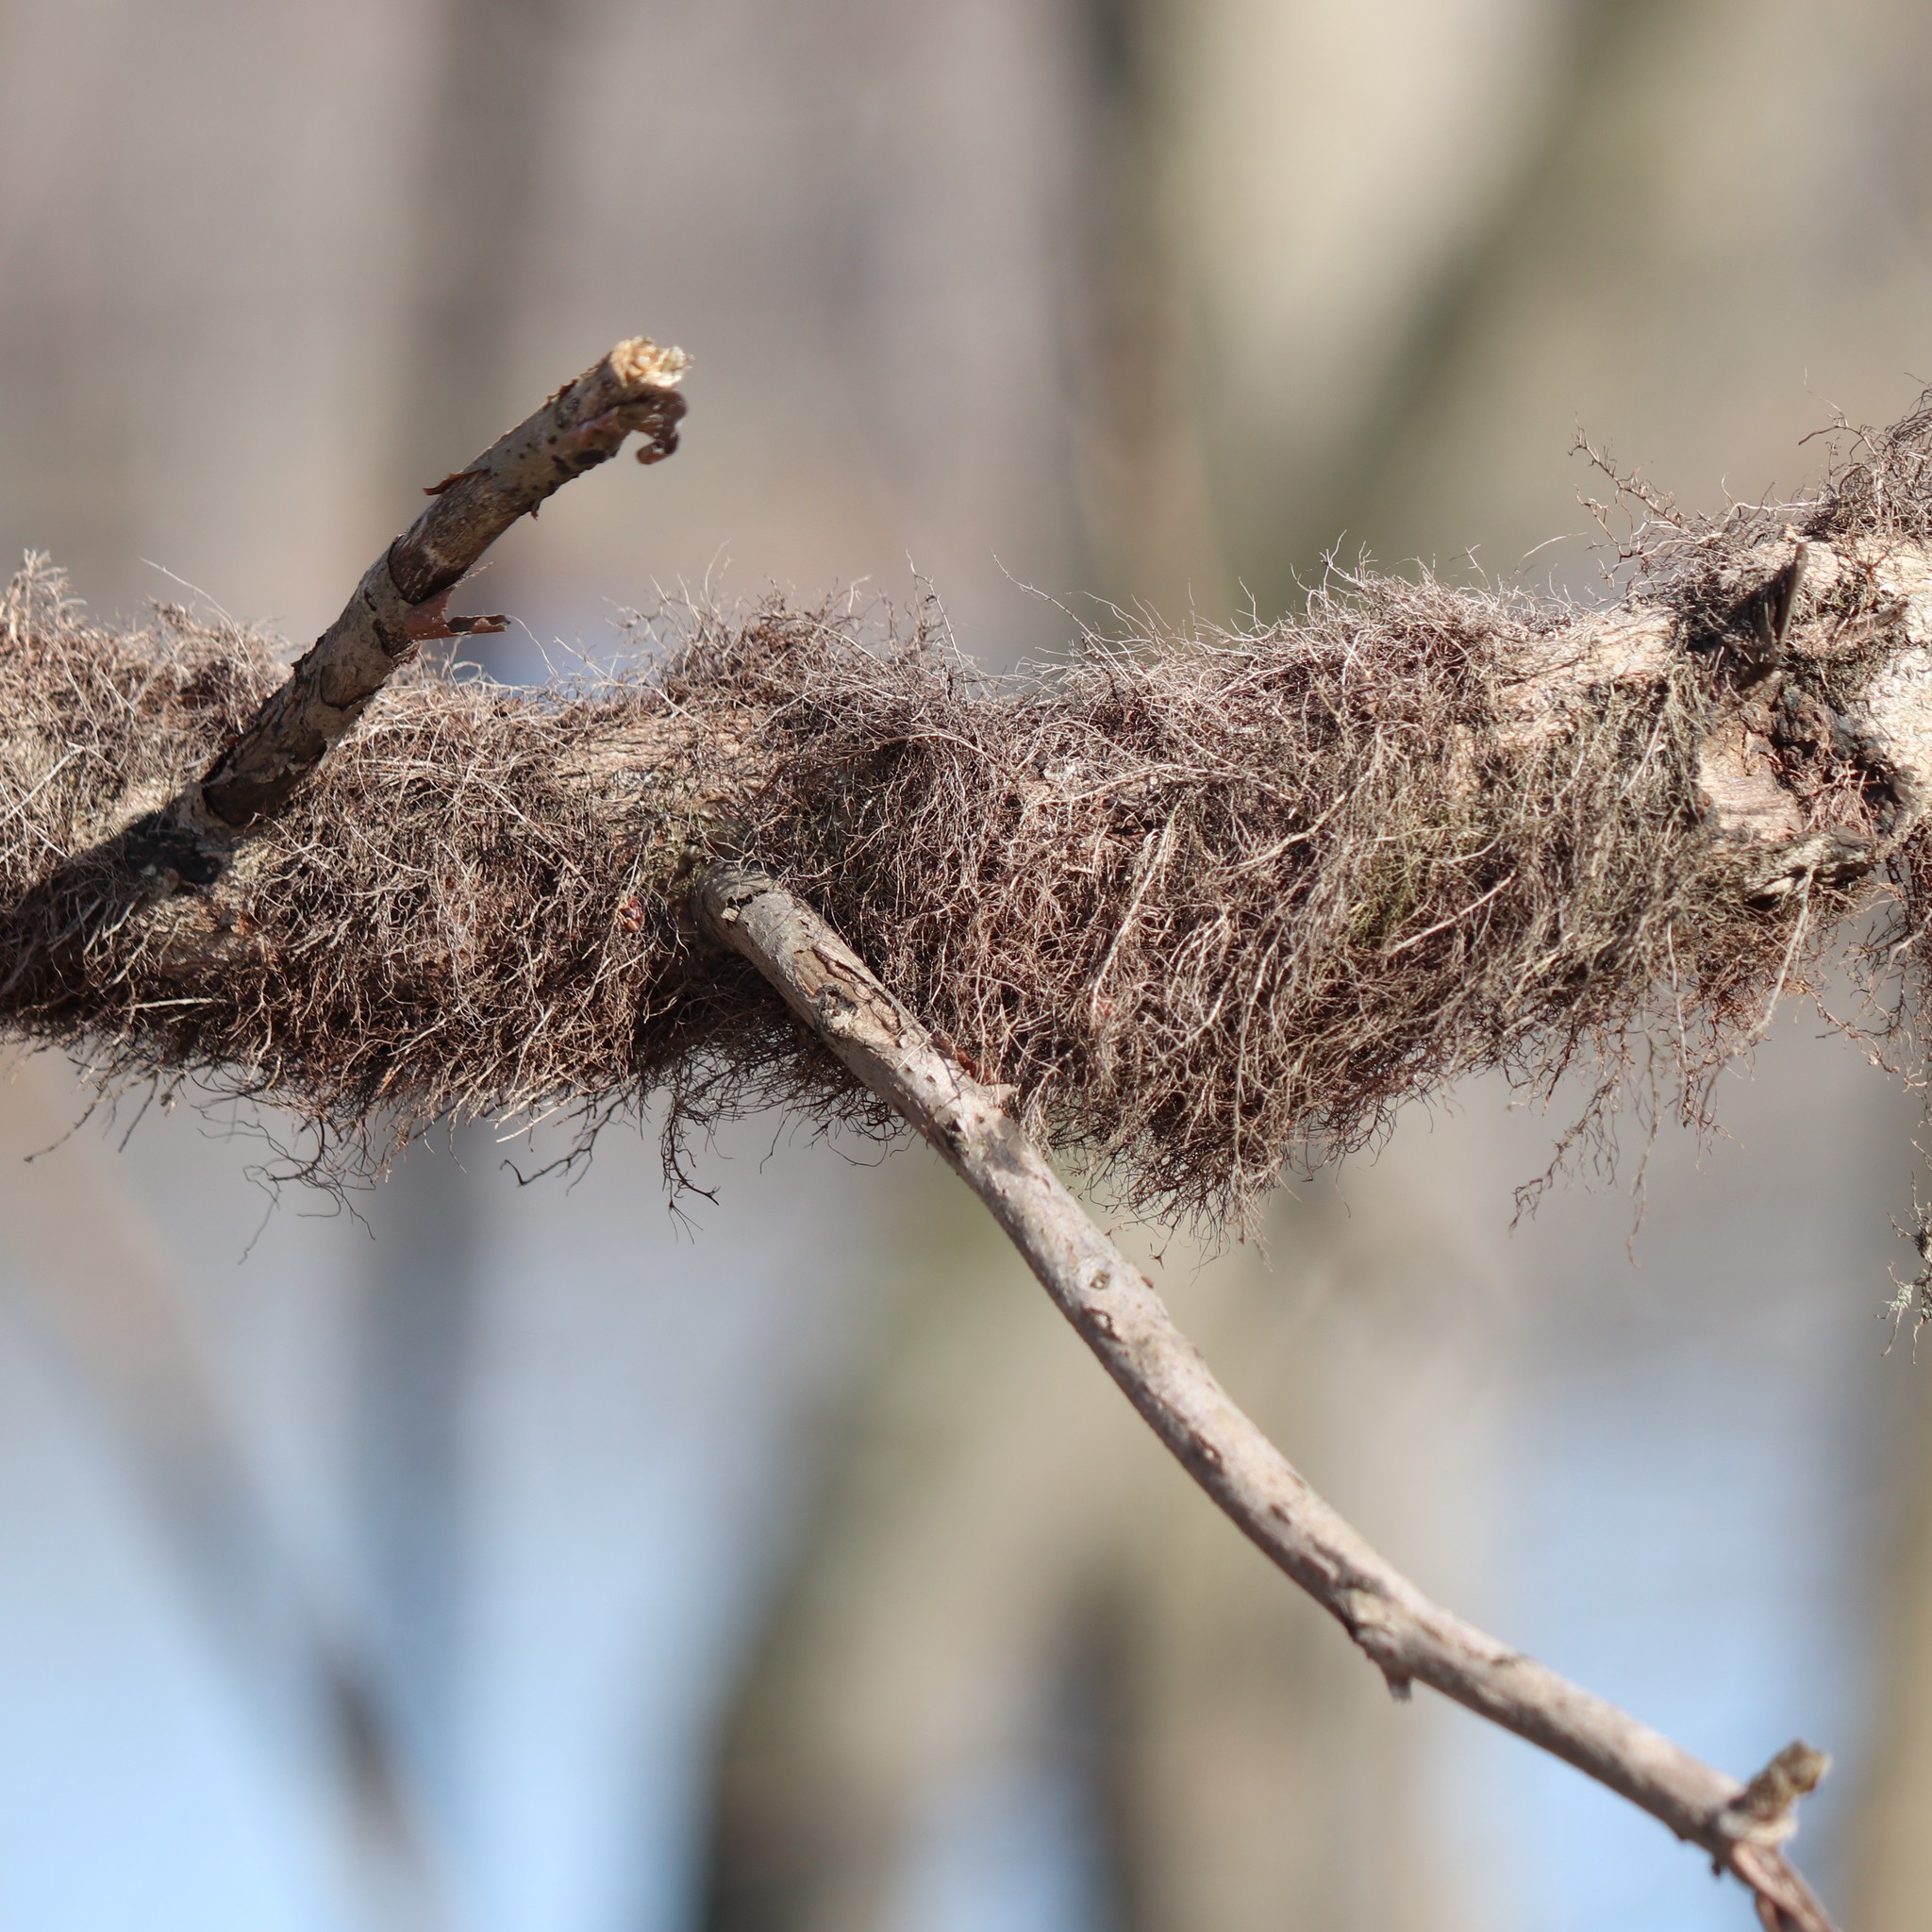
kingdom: Plantae
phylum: Tracheophyta
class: Magnoliopsida
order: Sapindales
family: Anacardiaceae
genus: Toxicodendron
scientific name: Toxicodendron radicans
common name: Poison ivy
